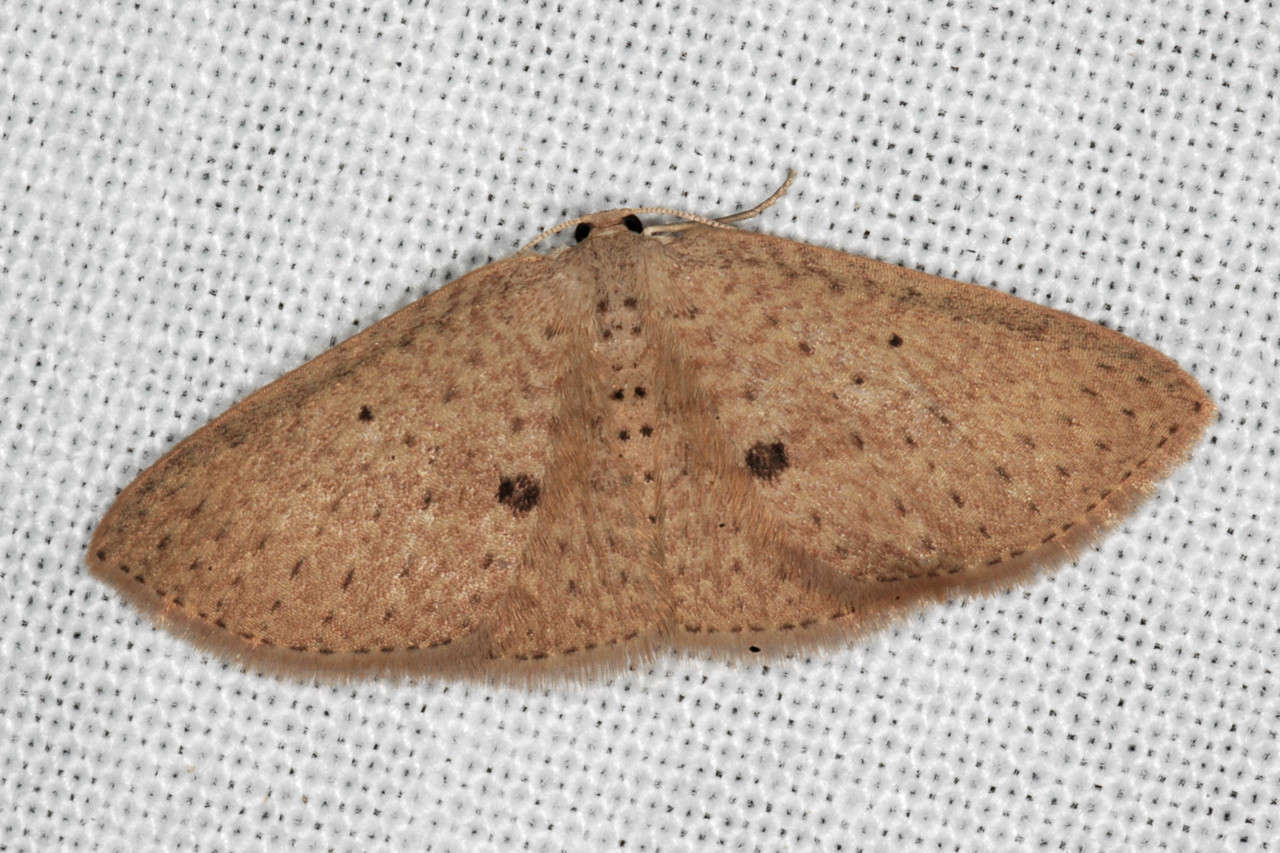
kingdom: Animalia
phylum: Arthropoda
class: Insecta
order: Lepidoptera
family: Geometridae
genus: Poecilasthena
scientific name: Poecilasthena anthodes
